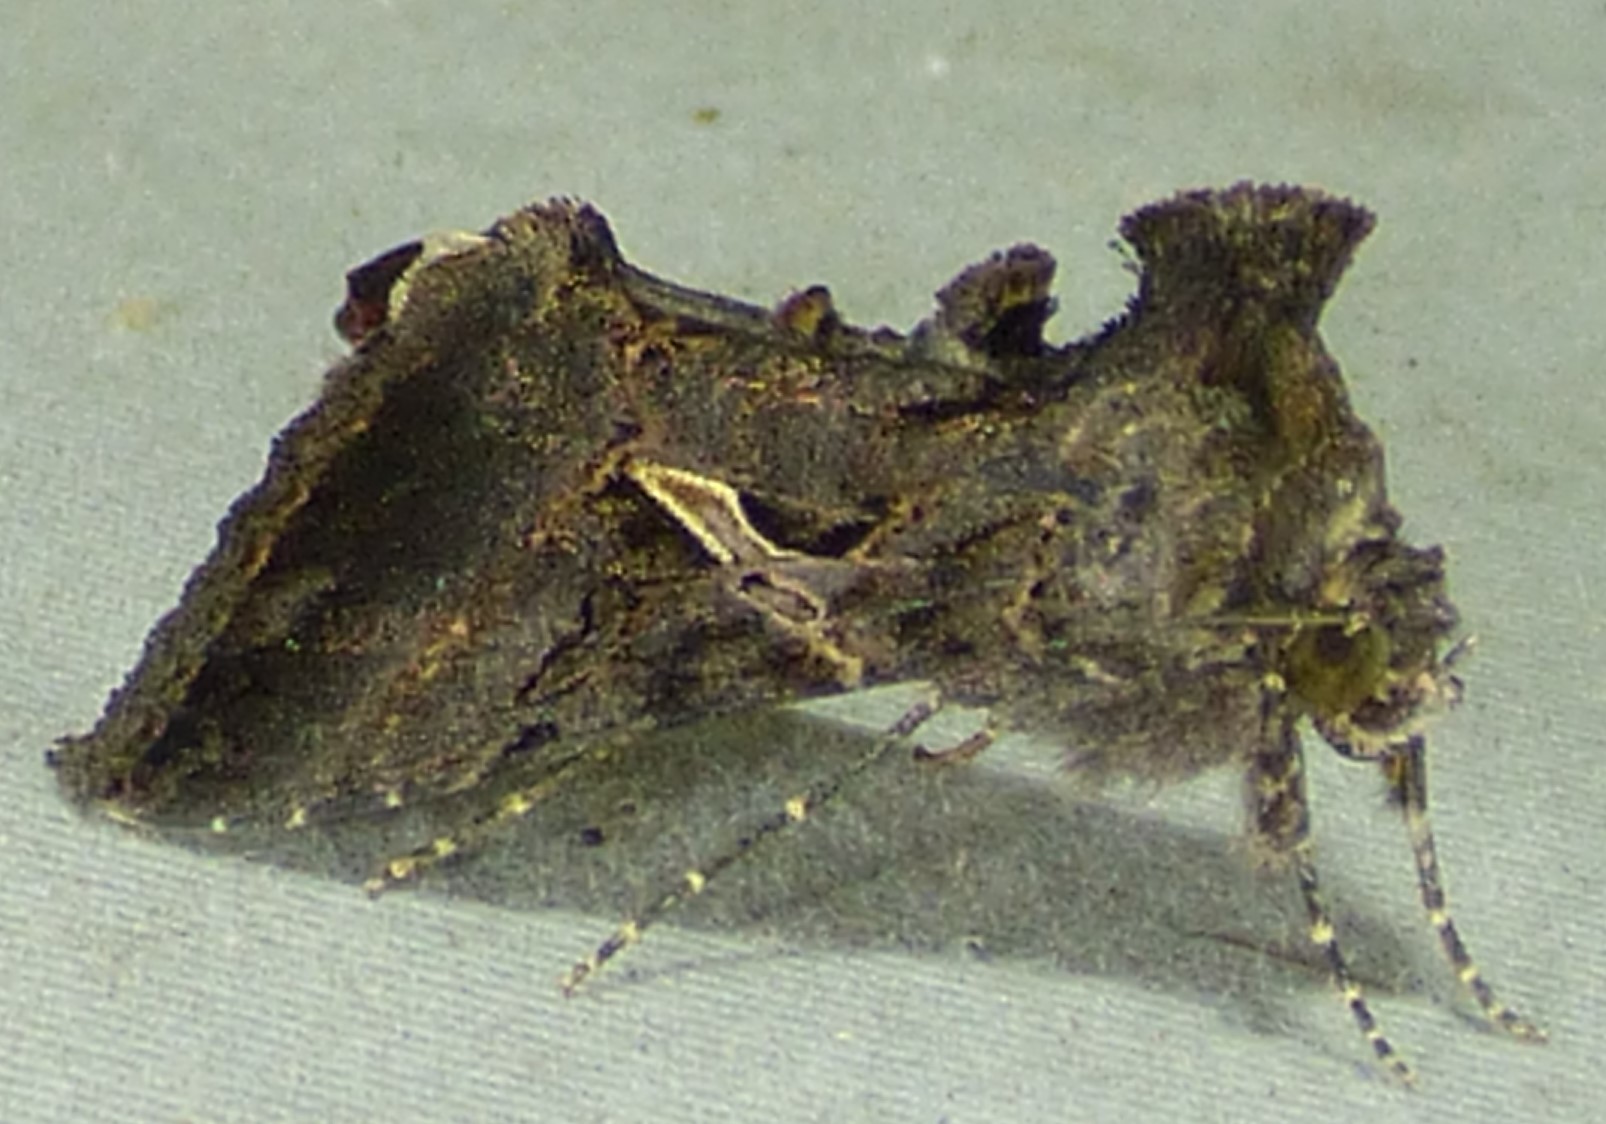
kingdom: Animalia
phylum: Arthropoda
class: Insecta
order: Lepidoptera
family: Noctuidae
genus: Ctenoplusia
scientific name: Ctenoplusia oxygramma
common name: Sharp-stigma looper moth
